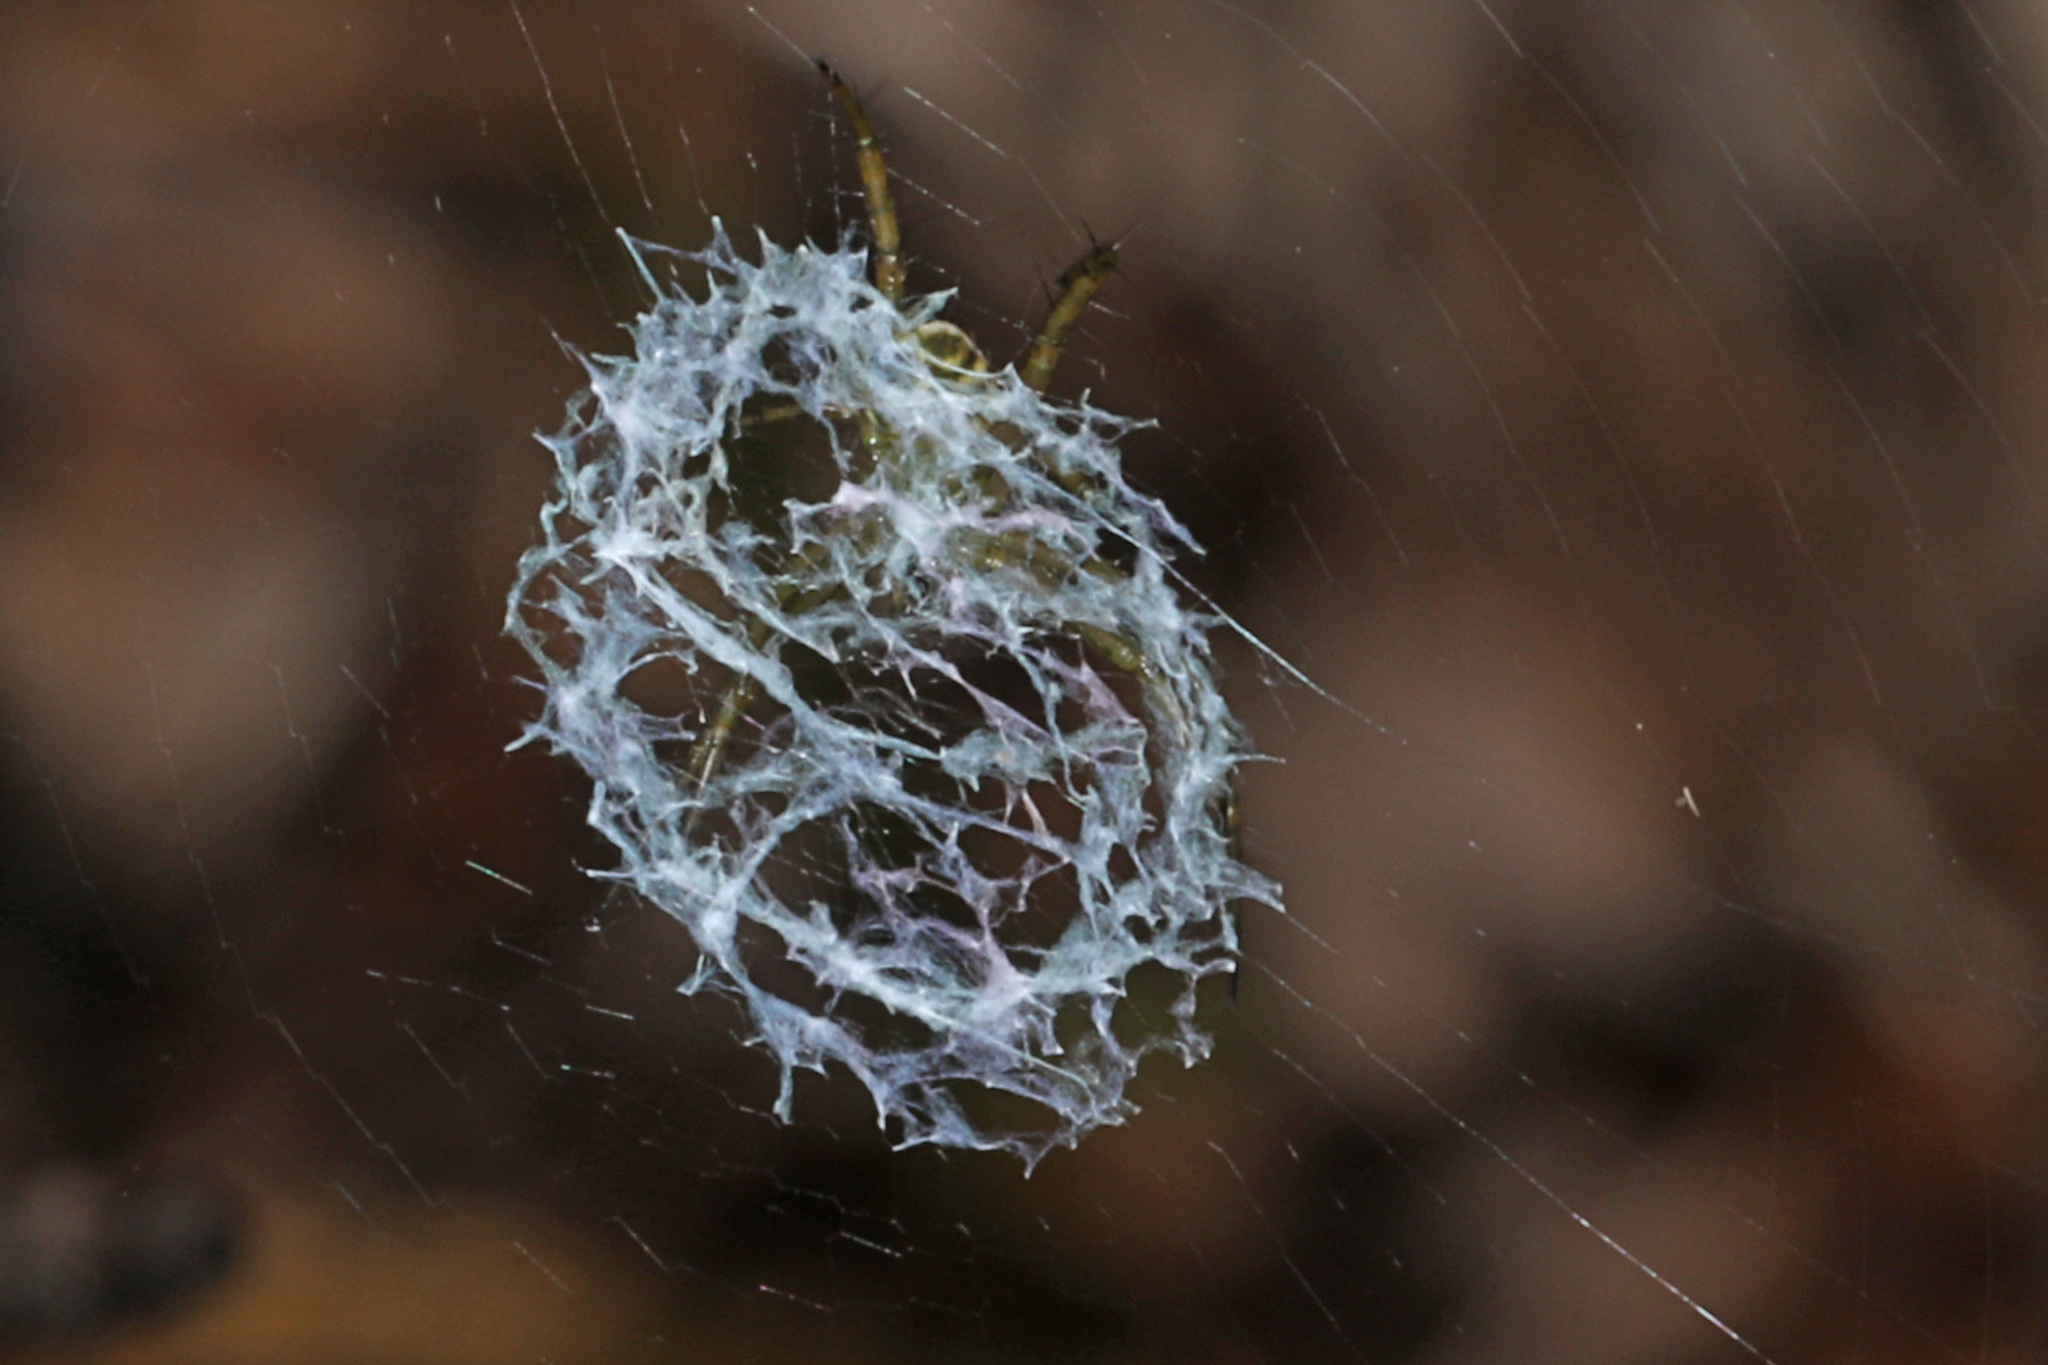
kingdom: Animalia
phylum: Arthropoda
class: Arachnida
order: Araneae
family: Araneidae
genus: Mangora
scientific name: Mangora gibberosa
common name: Lined orbweaver
